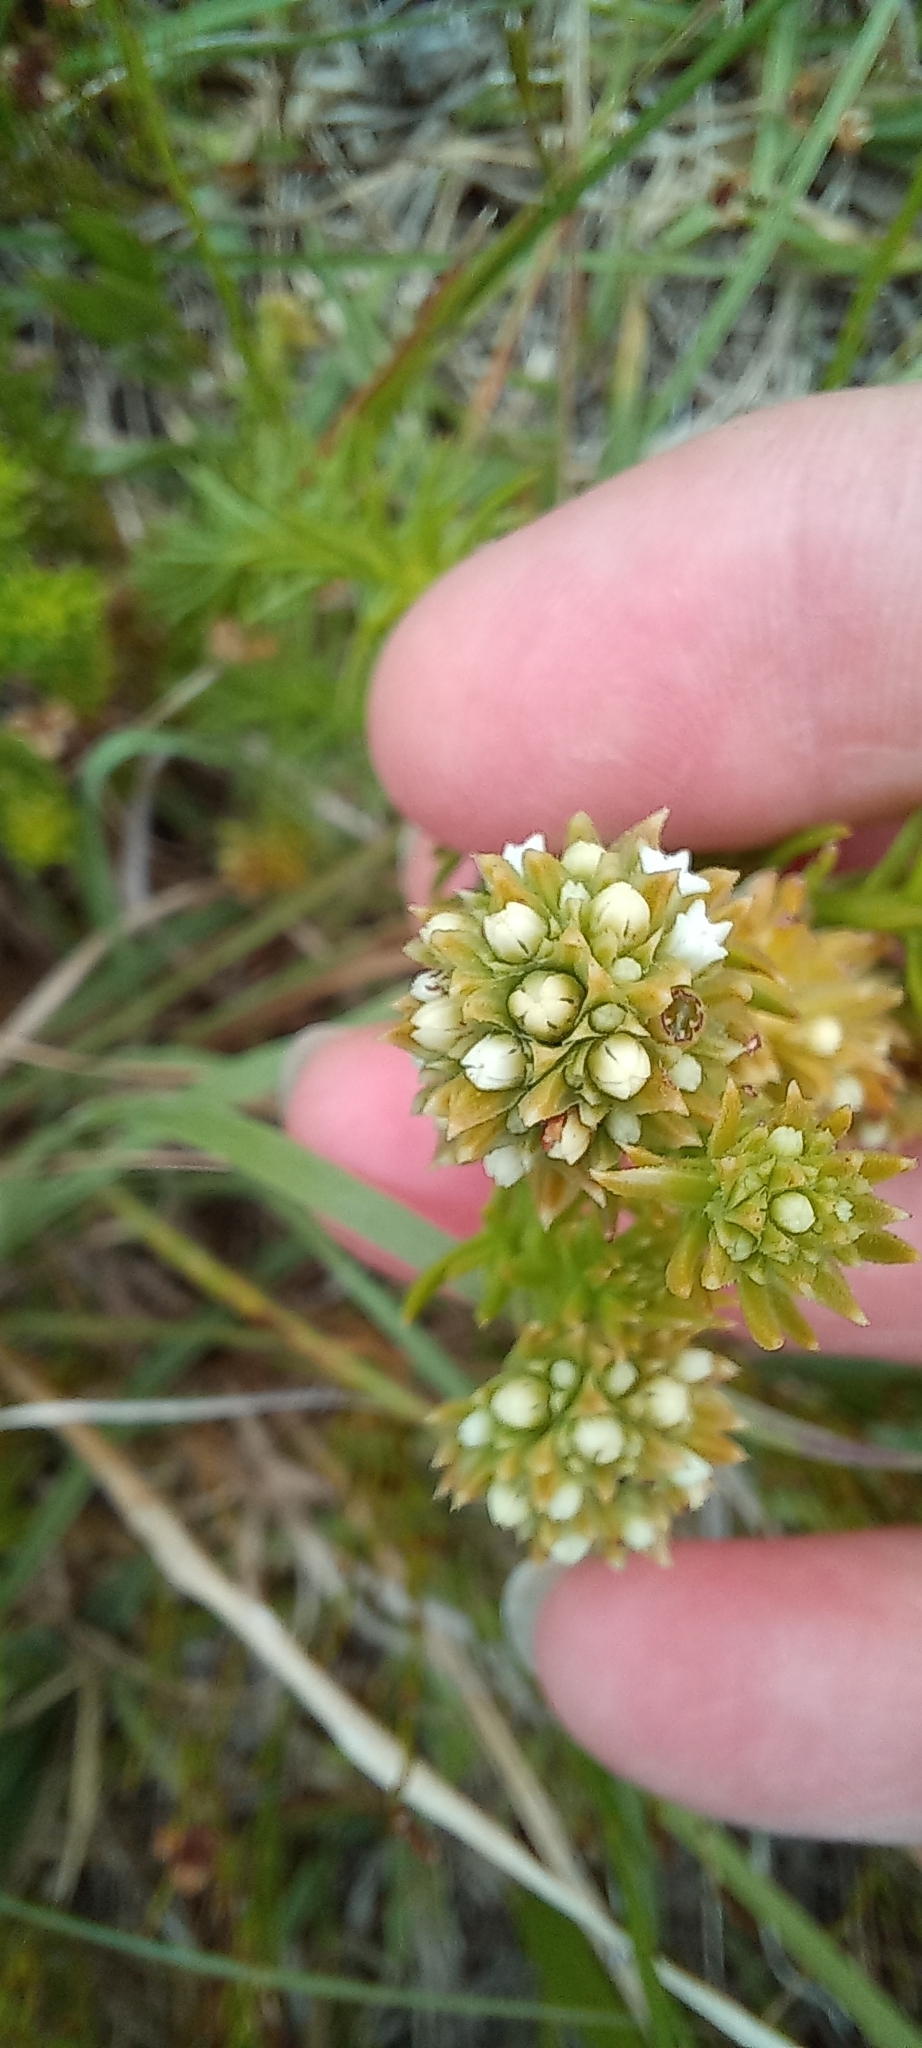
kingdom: Plantae
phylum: Tracheophyta
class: Magnoliopsida
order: Santalales
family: Thesiaceae
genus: Thesium
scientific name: Thesium scabrum
